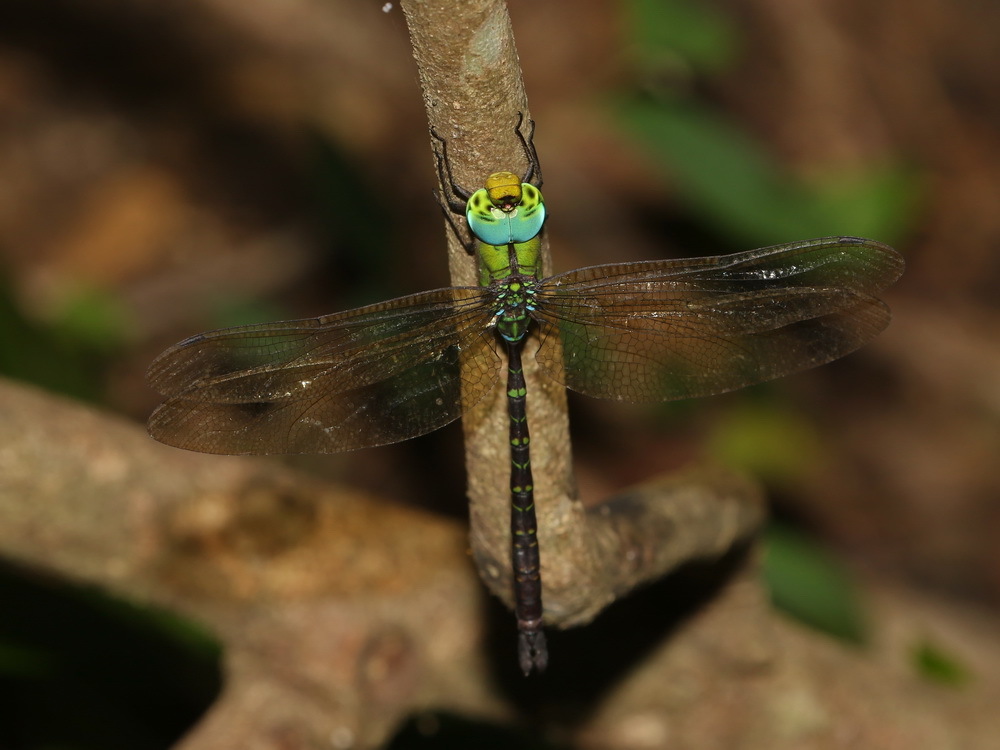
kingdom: Animalia
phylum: Arthropoda
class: Insecta
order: Odonata
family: Aeshnidae
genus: Heliaeschna
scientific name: Heliaeschna uninervulata
